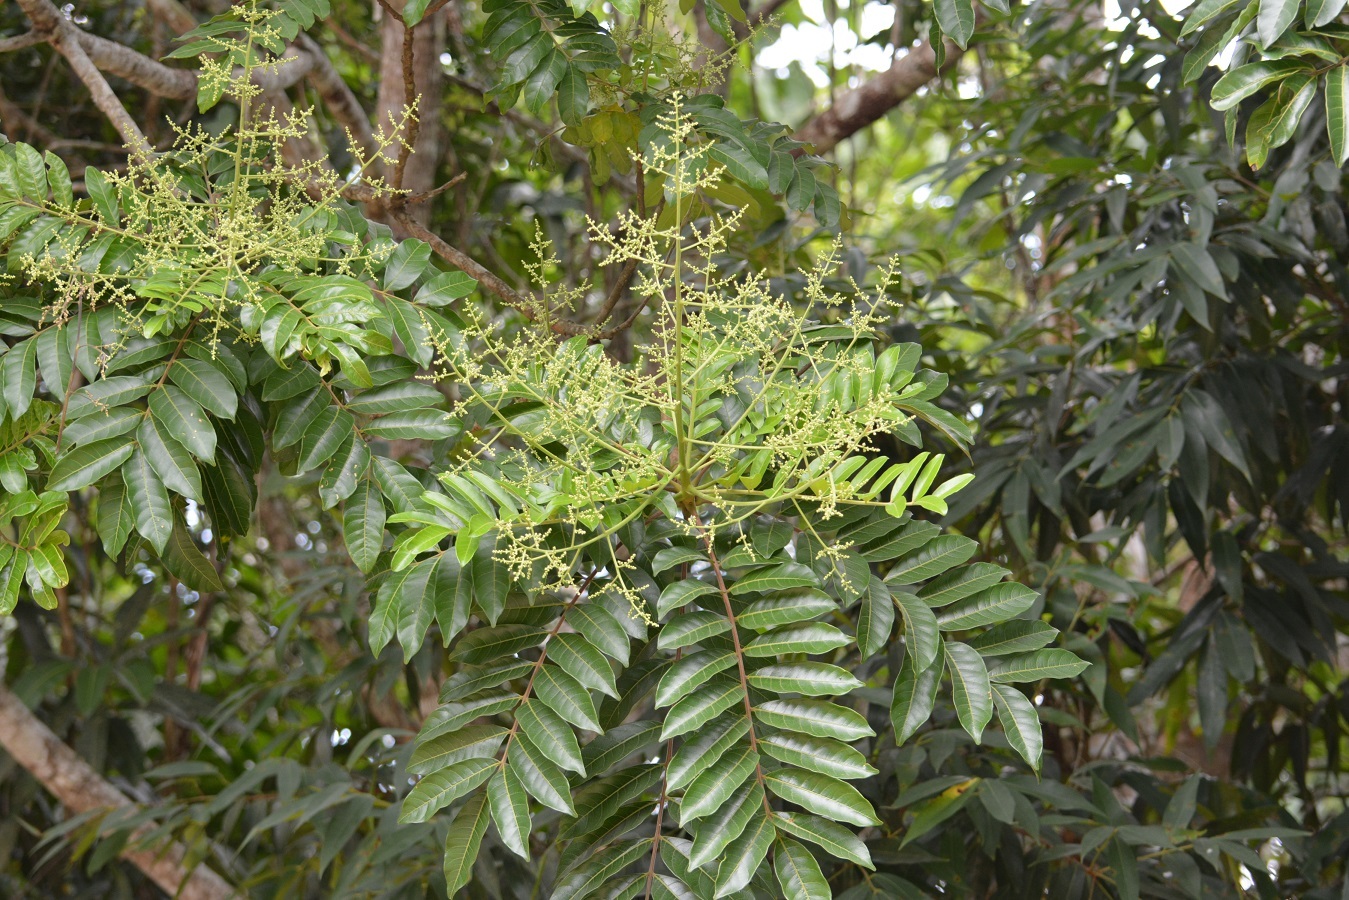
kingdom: Plantae
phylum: Tracheophyta
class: Magnoliopsida
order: Sapindales
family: Anacardiaceae
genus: Mosquitoxylum
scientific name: Mosquitoxylum jamaicense
